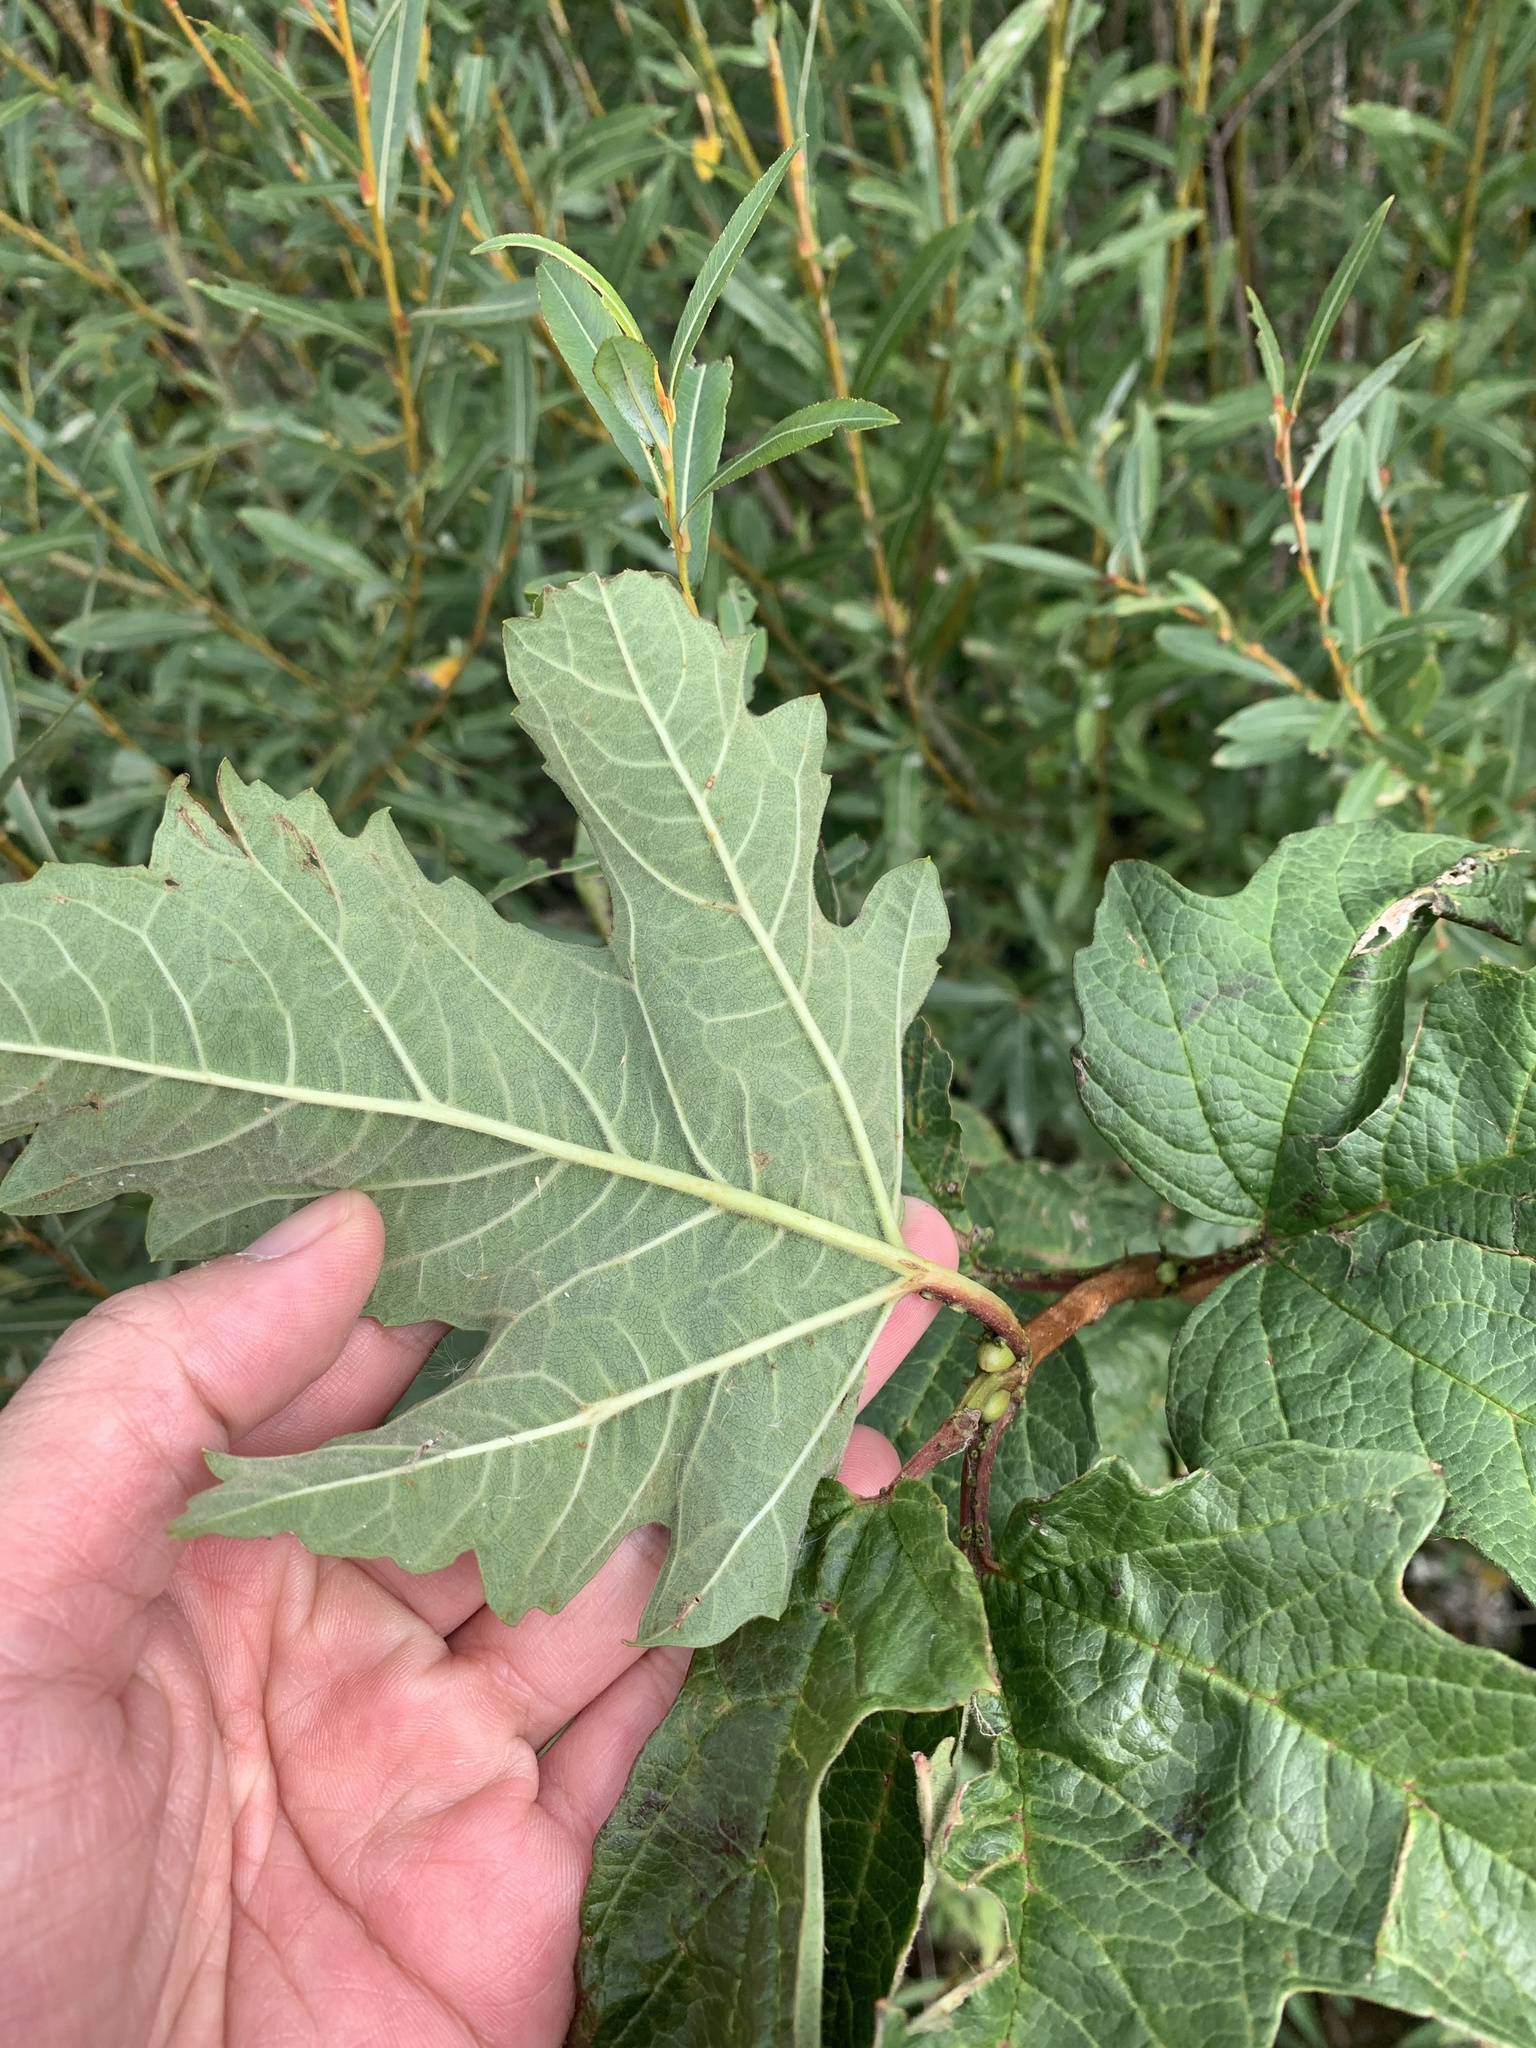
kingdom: Plantae
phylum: Tracheophyta
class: Magnoliopsida
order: Sapindales
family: Sapindaceae
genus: Acer
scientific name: Acer pseudoplatanus
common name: Sycamore
